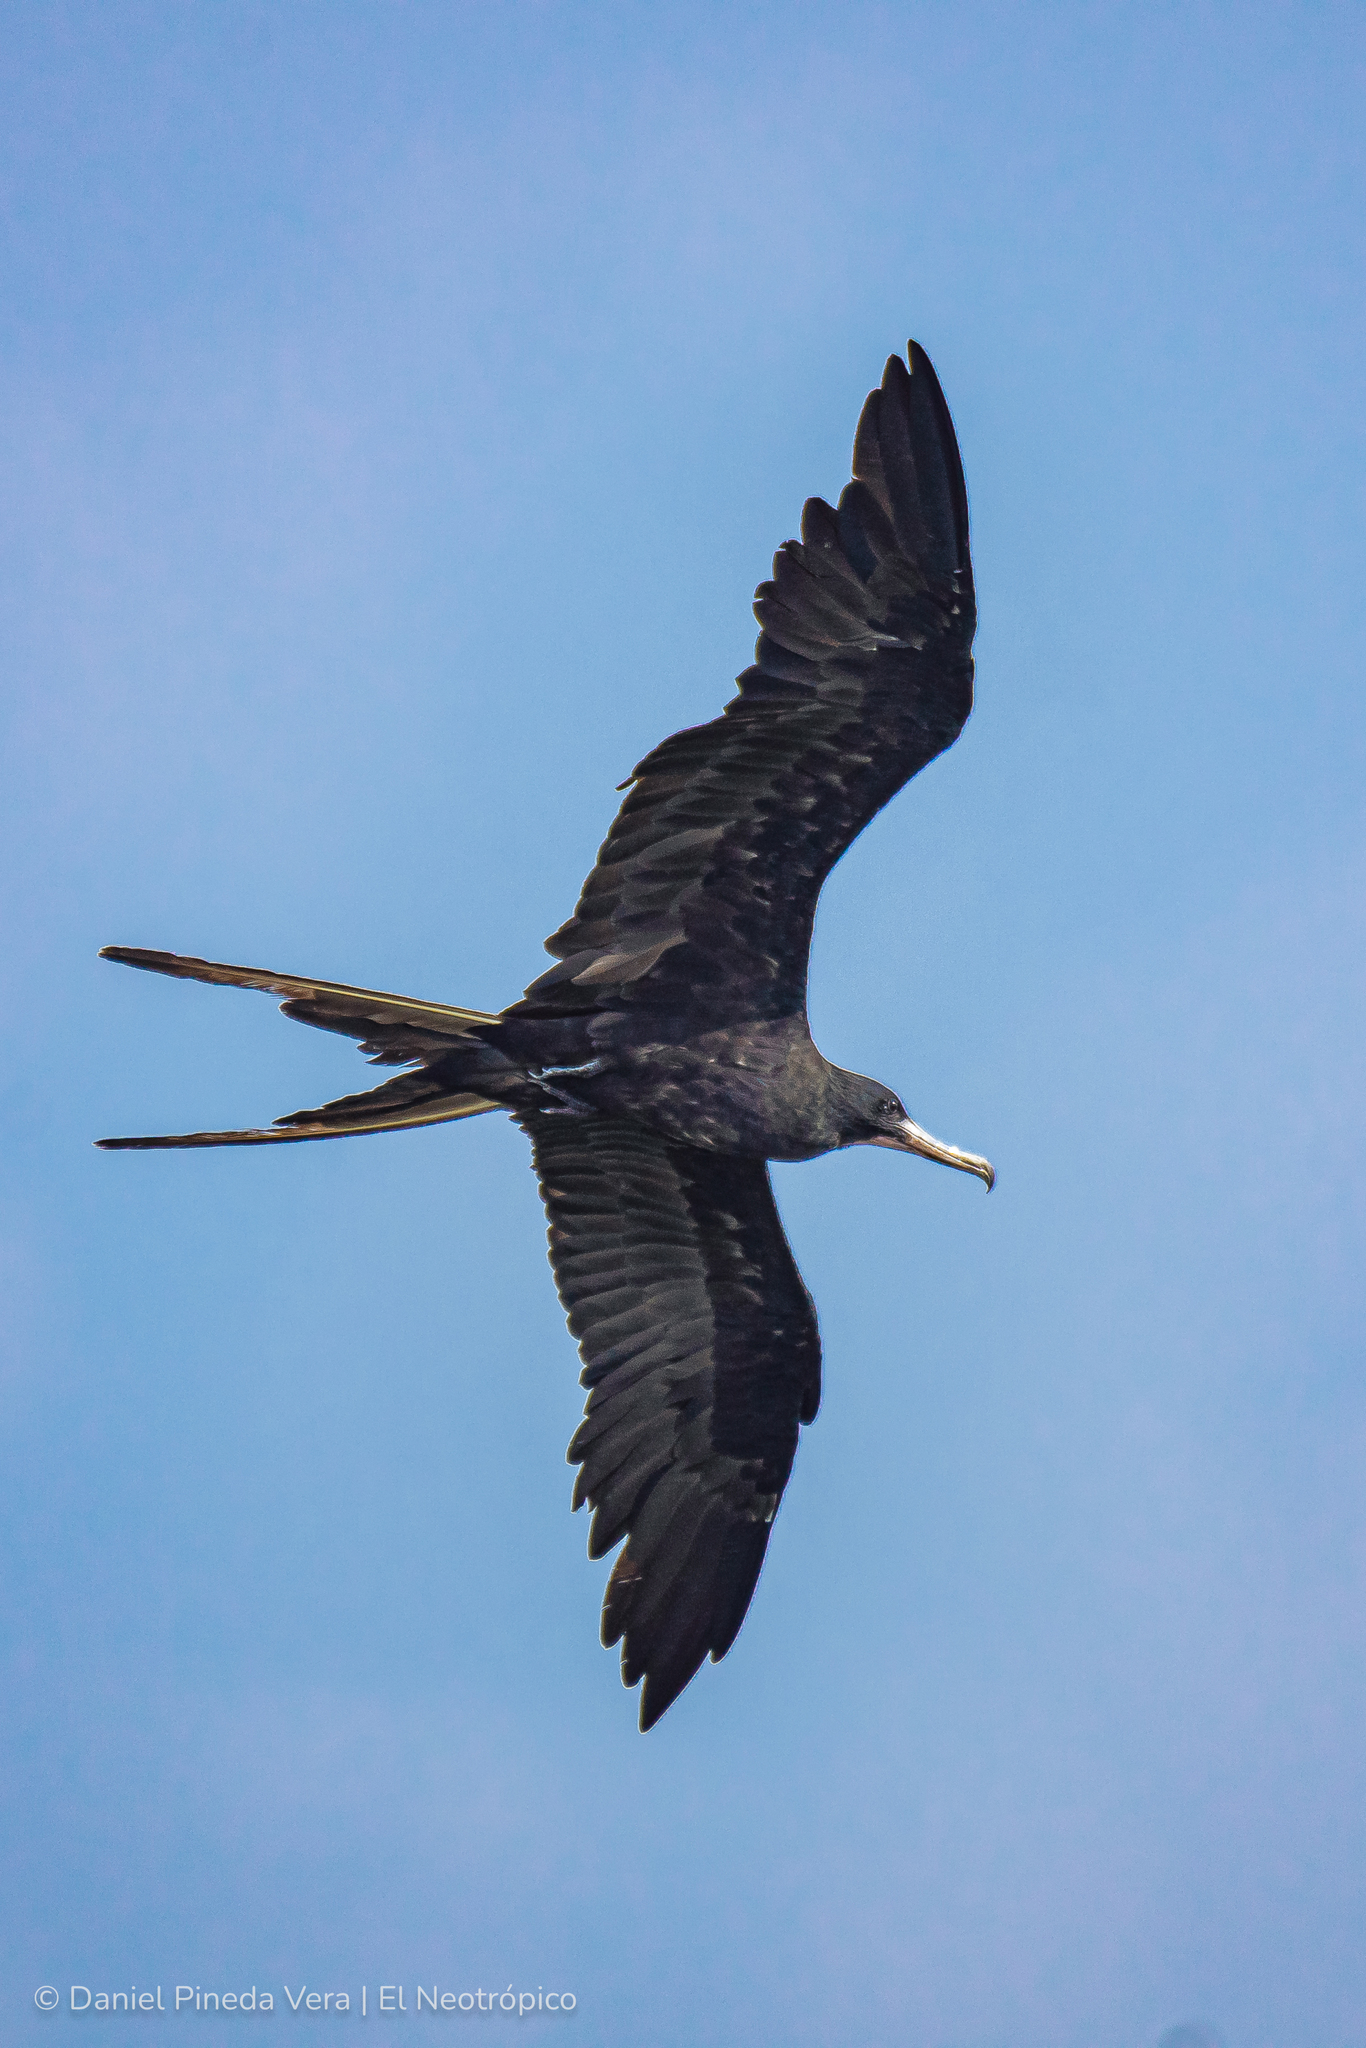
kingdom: Animalia
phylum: Chordata
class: Aves
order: Suliformes
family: Fregatidae
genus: Fregata
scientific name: Fregata magnificens
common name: Magnificent frigatebird
